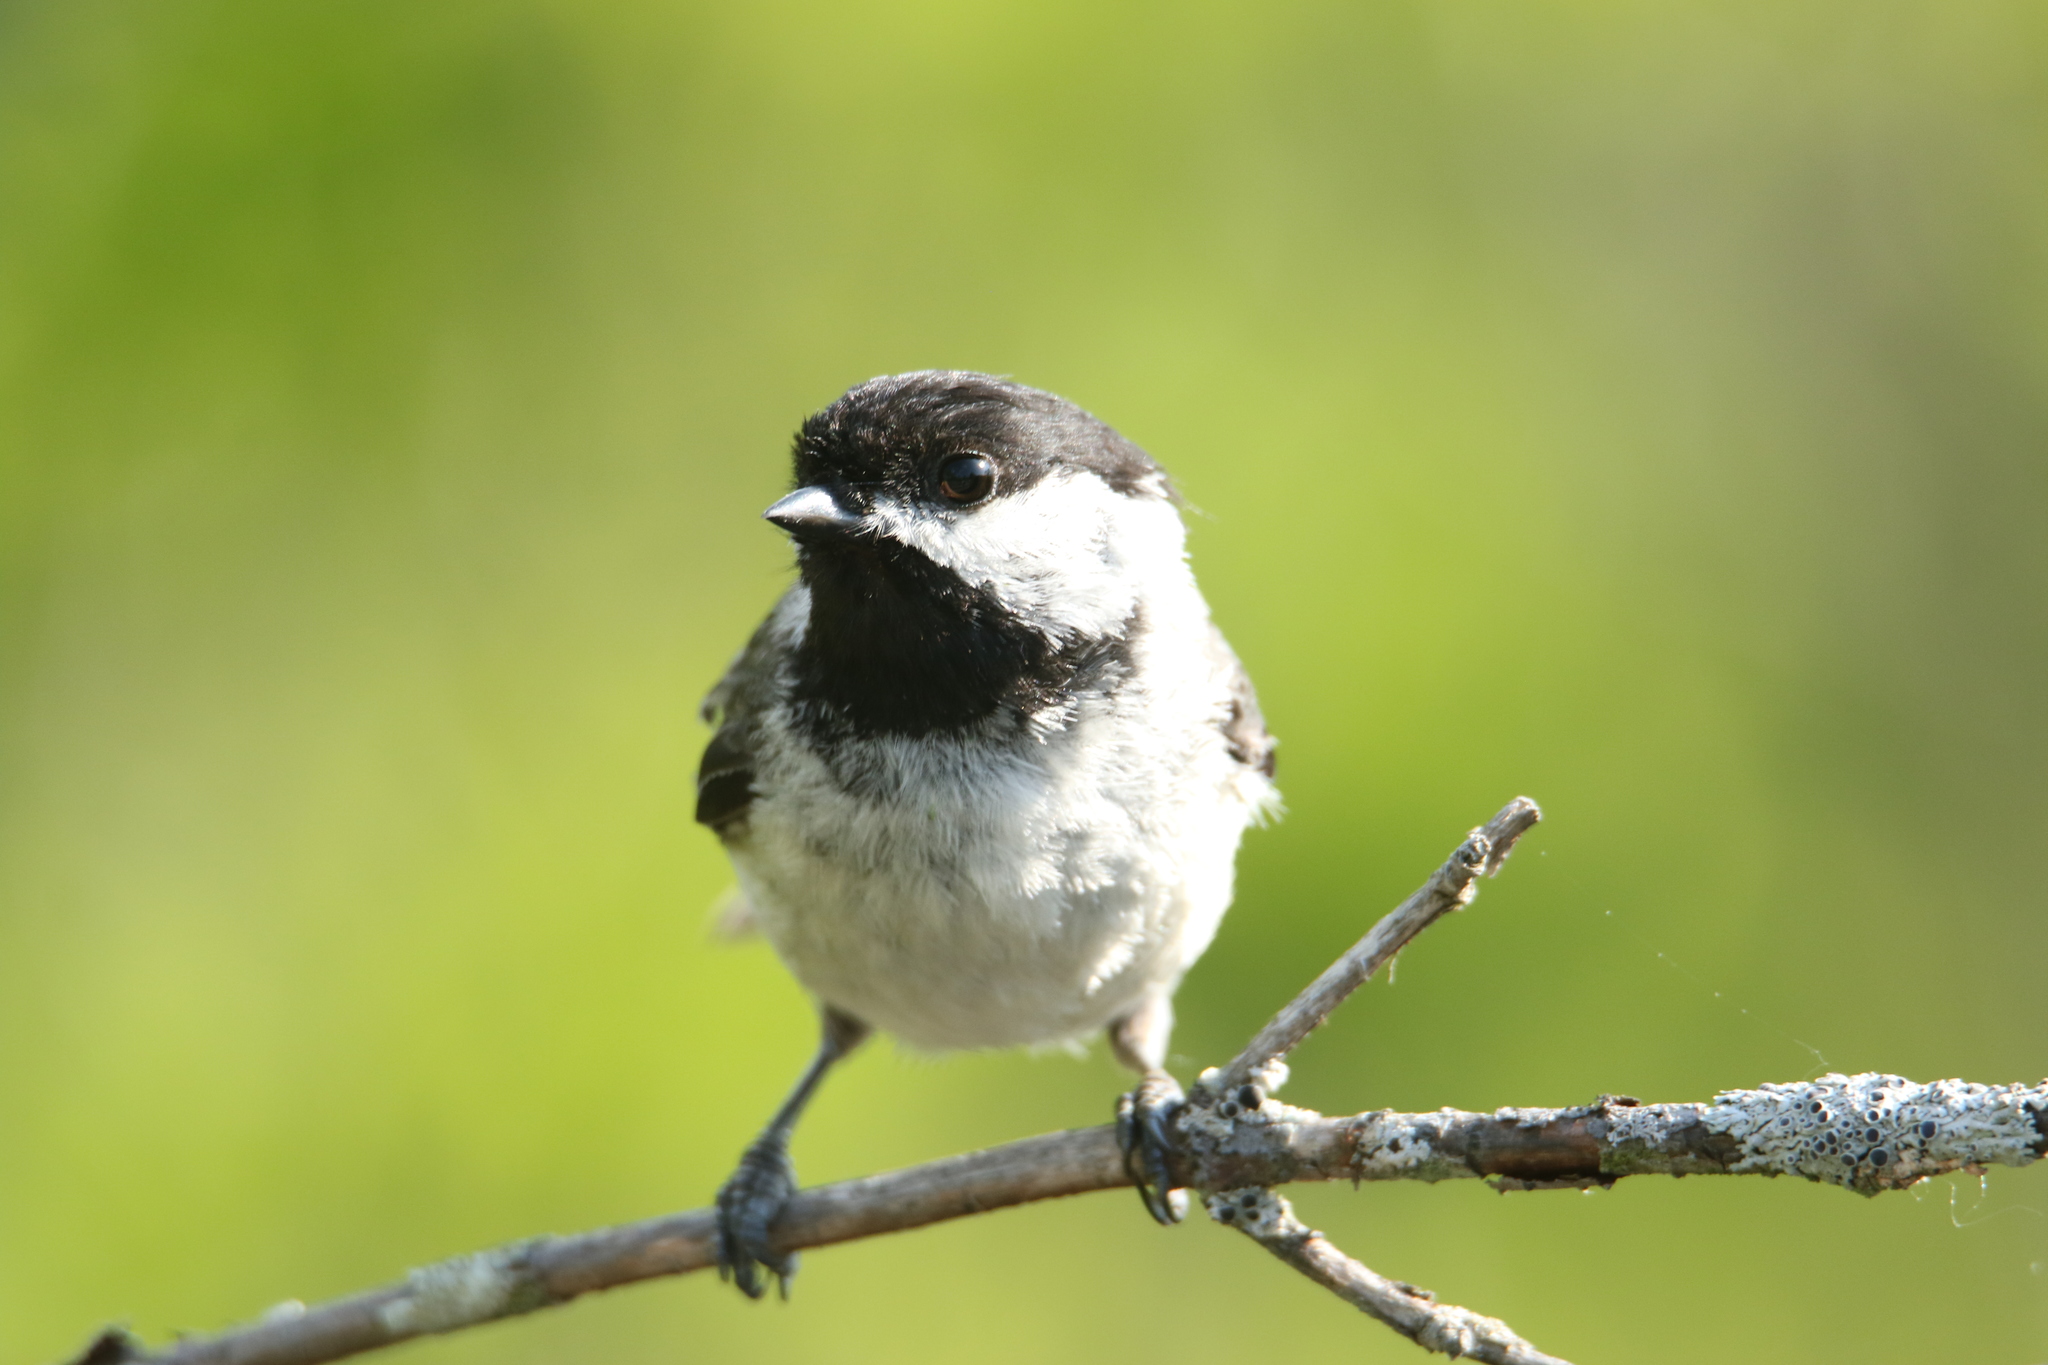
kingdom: Animalia
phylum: Chordata
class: Aves
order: Passeriformes
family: Paridae
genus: Poecile
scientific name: Poecile atricapillus
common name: Black-capped chickadee
